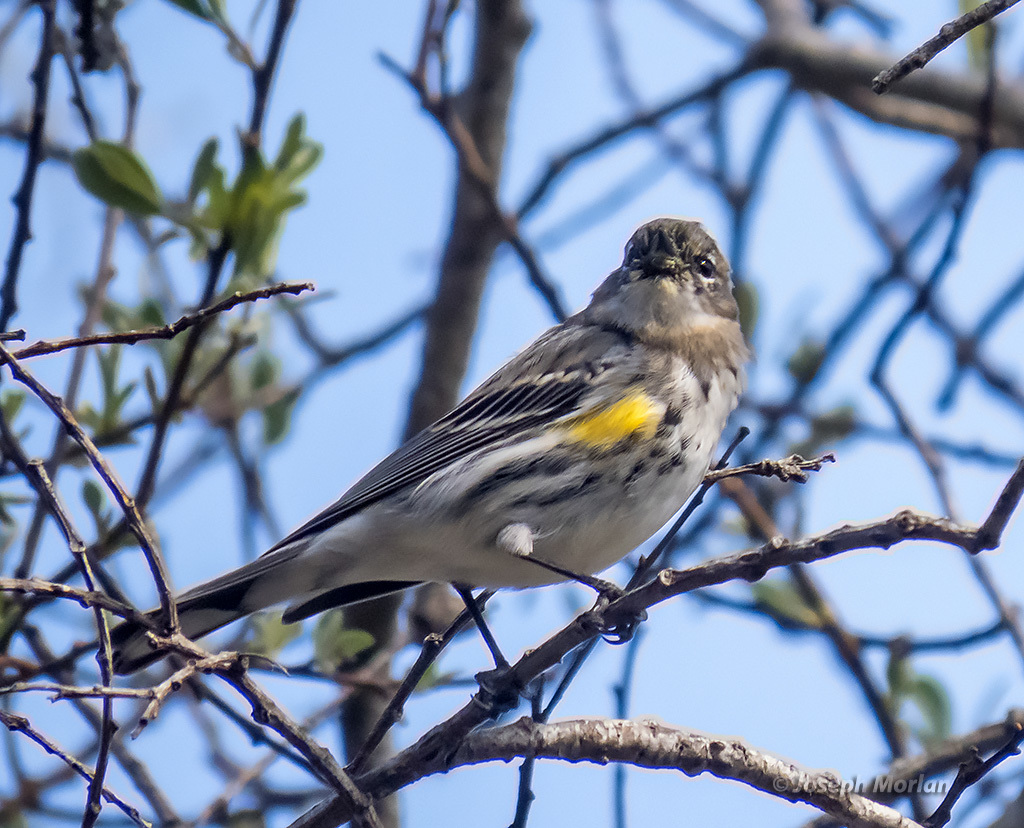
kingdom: Animalia
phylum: Chordata
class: Aves
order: Passeriformes
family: Parulidae
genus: Setophaga
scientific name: Setophaga coronata
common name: Myrtle warbler
